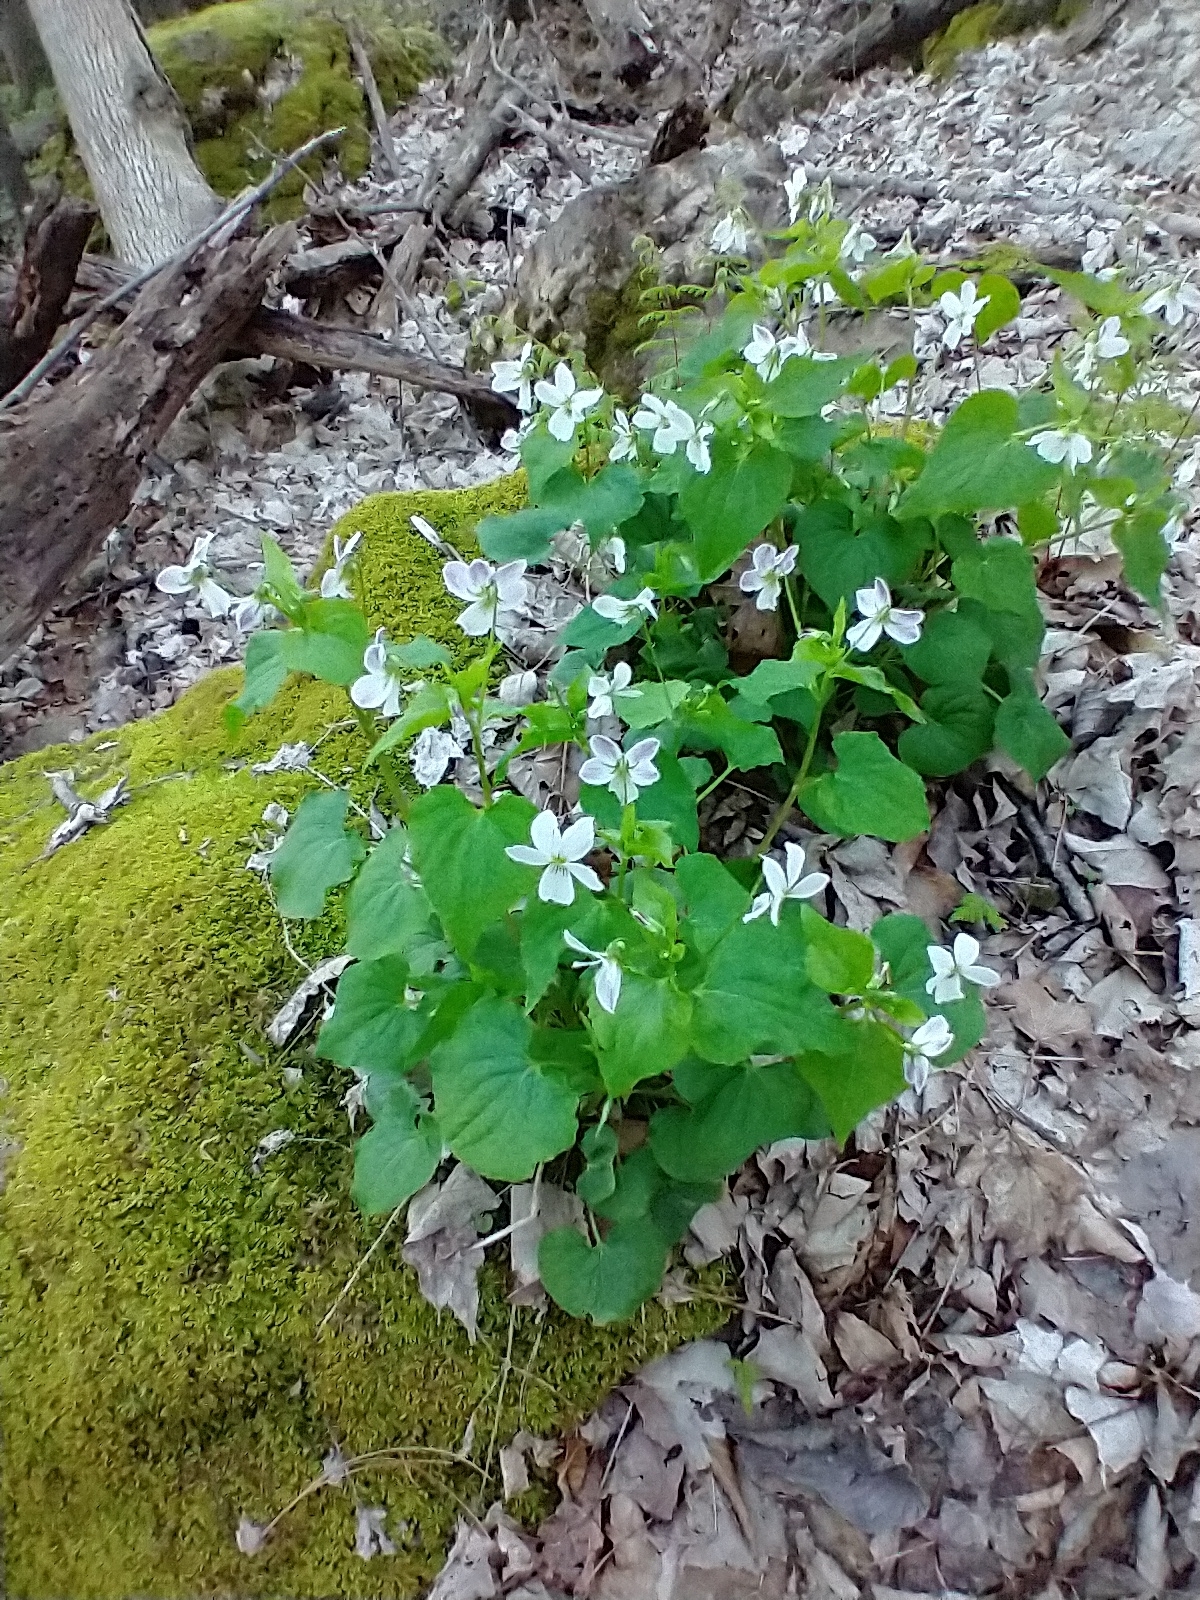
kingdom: Plantae
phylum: Tracheophyta
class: Magnoliopsida
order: Malpighiales
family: Violaceae
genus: Viola
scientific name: Viola canadensis
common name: Canada violet
